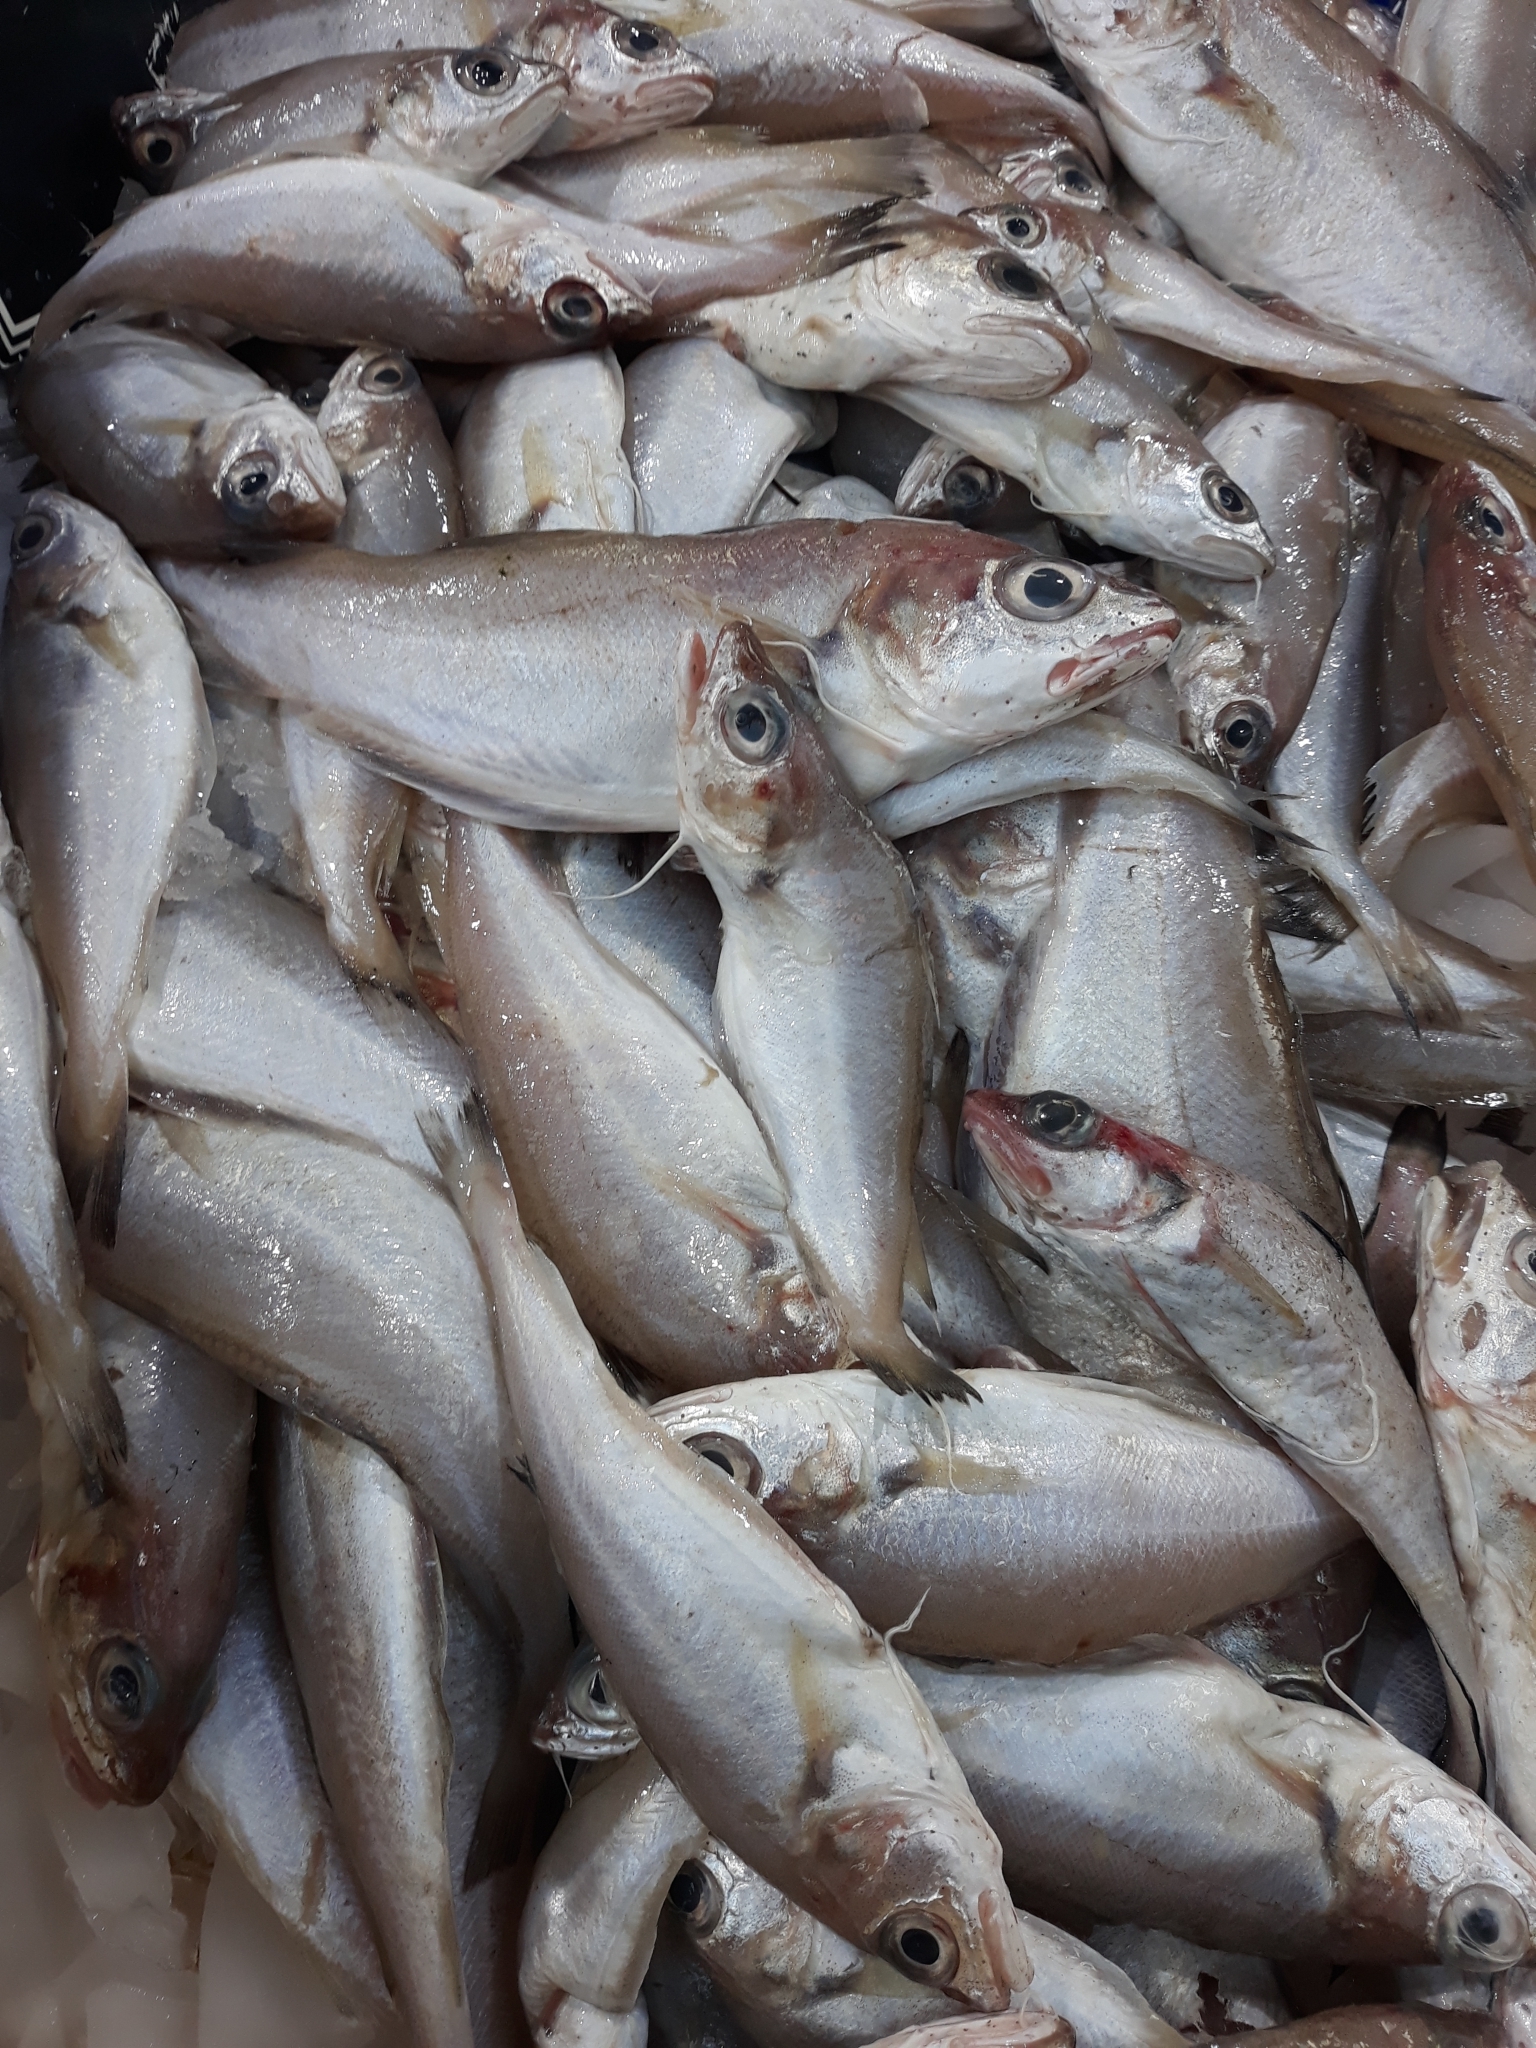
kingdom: Animalia
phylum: Chordata
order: Gadiformes
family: Gadidae
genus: Trisopterus
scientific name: Trisopterus capelanus
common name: Capelin
